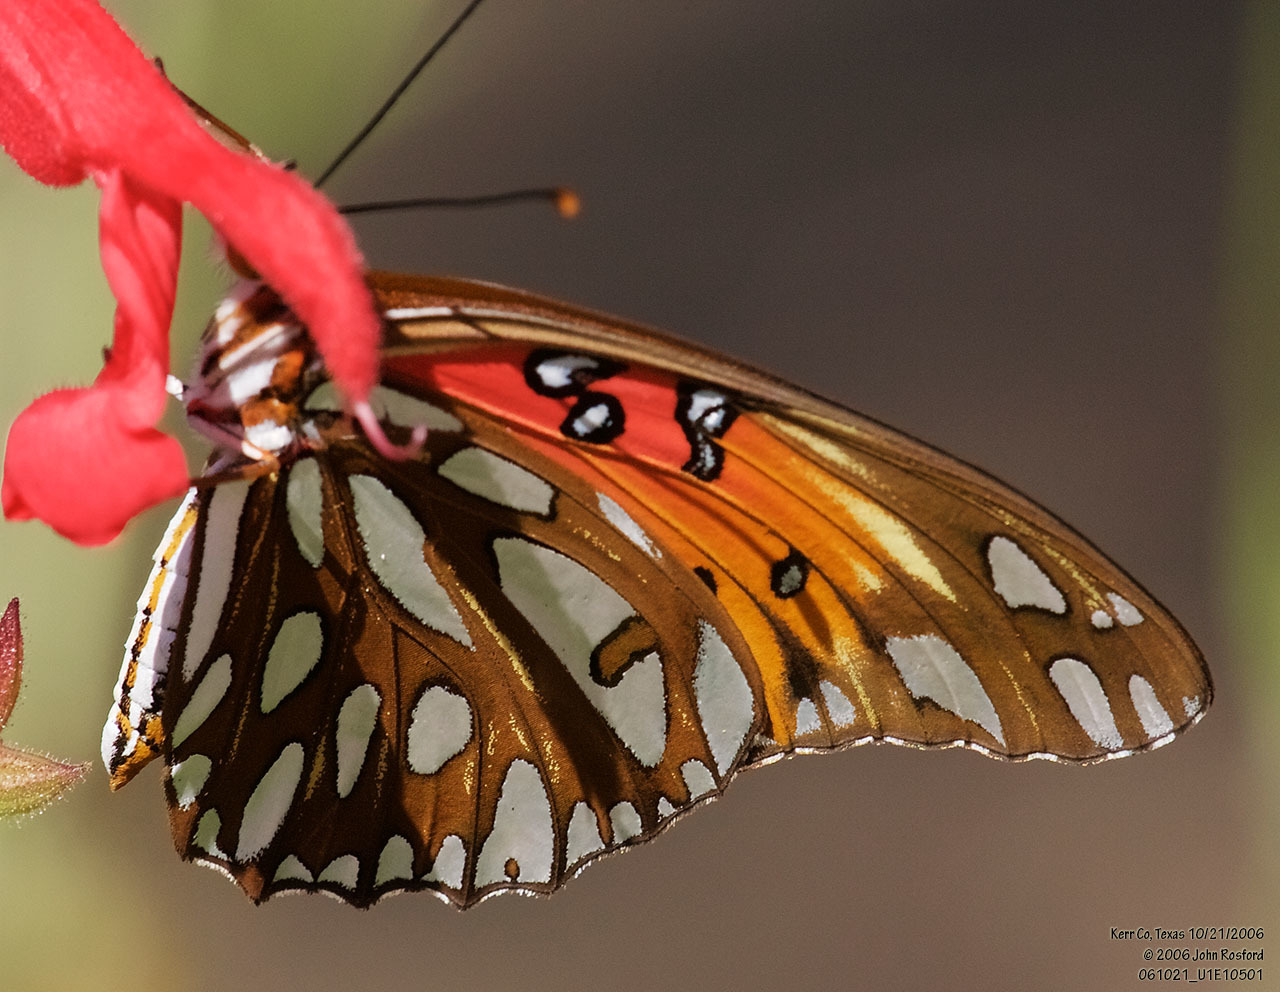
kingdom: Animalia
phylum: Arthropoda
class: Insecta
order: Lepidoptera
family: Nymphalidae
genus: Dione
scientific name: Dione vanillae
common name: Gulf fritillary
